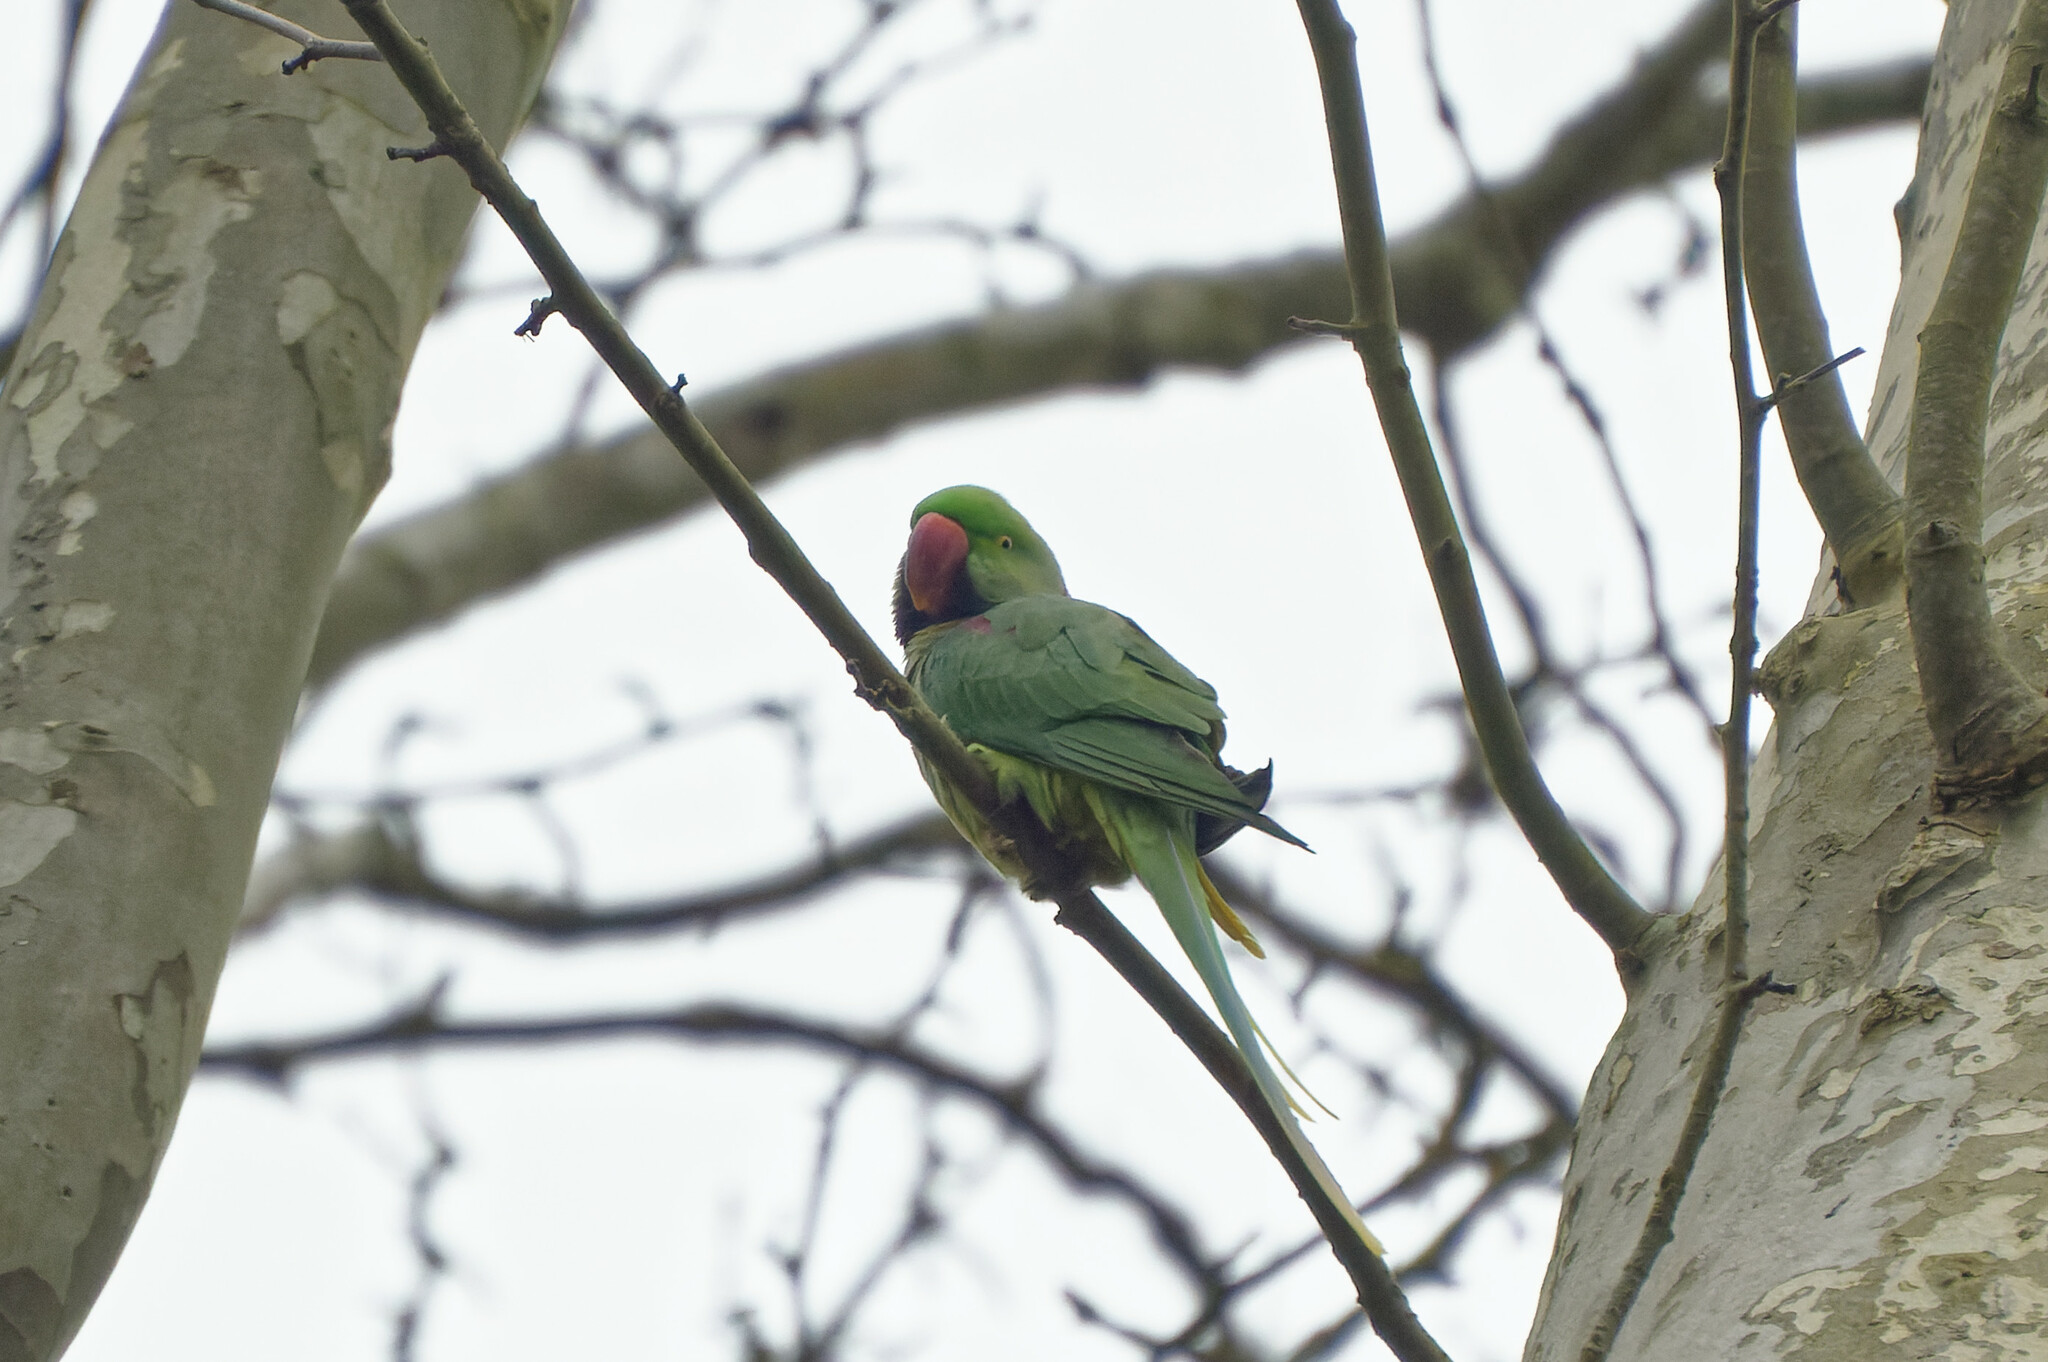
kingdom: Animalia
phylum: Chordata
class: Aves
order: Psittaciformes
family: Psittacidae
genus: Psittacula
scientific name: Psittacula eupatria
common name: Alexandrine parakeet
